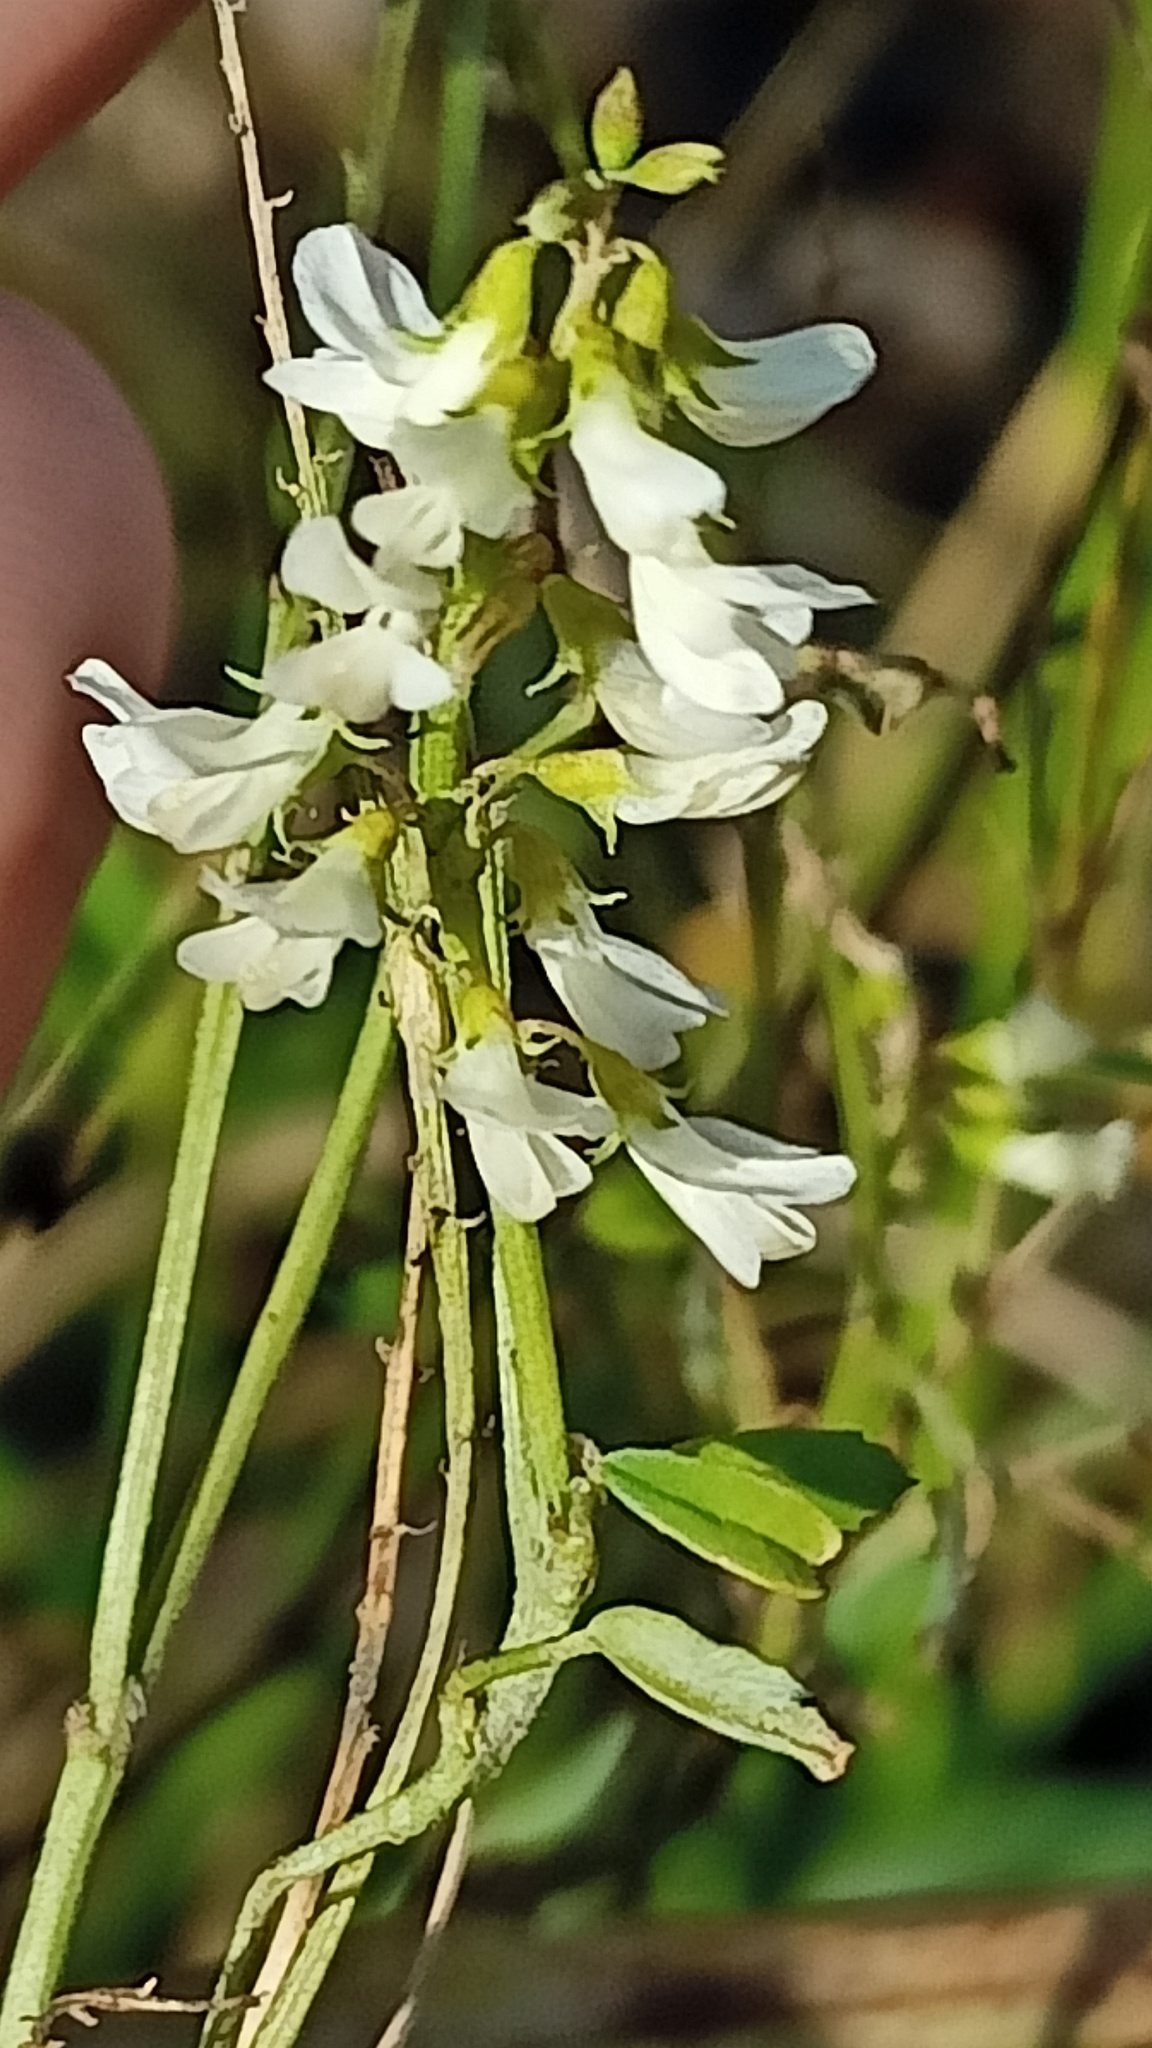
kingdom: Plantae
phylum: Tracheophyta
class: Magnoliopsida
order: Fabales
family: Fabaceae
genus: Melilotus
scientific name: Melilotus albus
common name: White melilot
